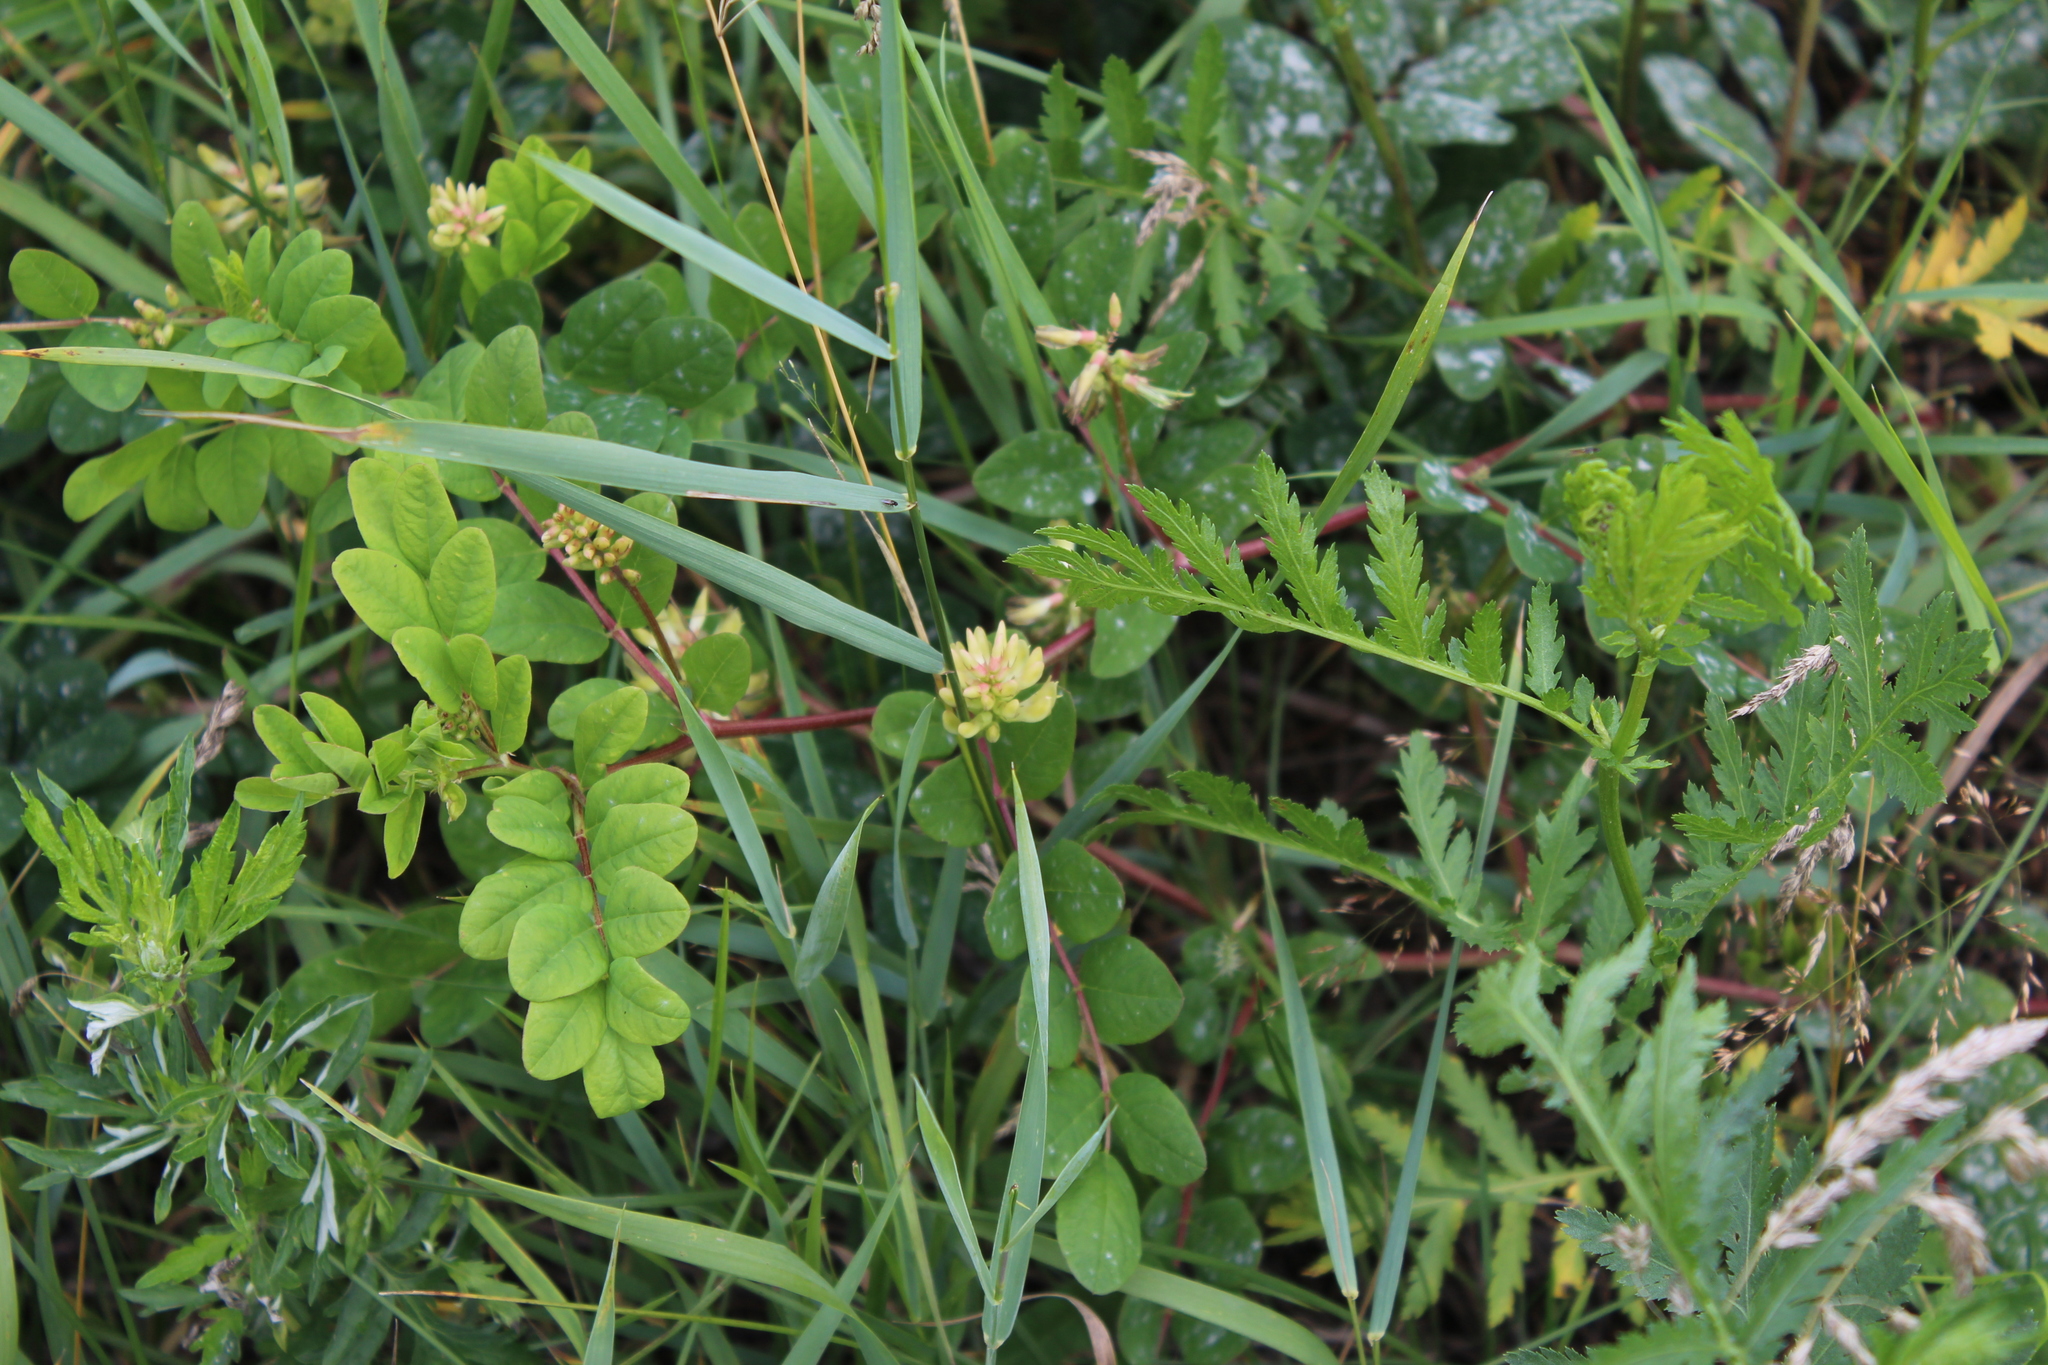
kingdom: Plantae
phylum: Tracheophyta
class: Magnoliopsida
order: Fabales
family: Fabaceae
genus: Astragalus
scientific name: Astragalus glycyphyllos
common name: Wild liquorice
